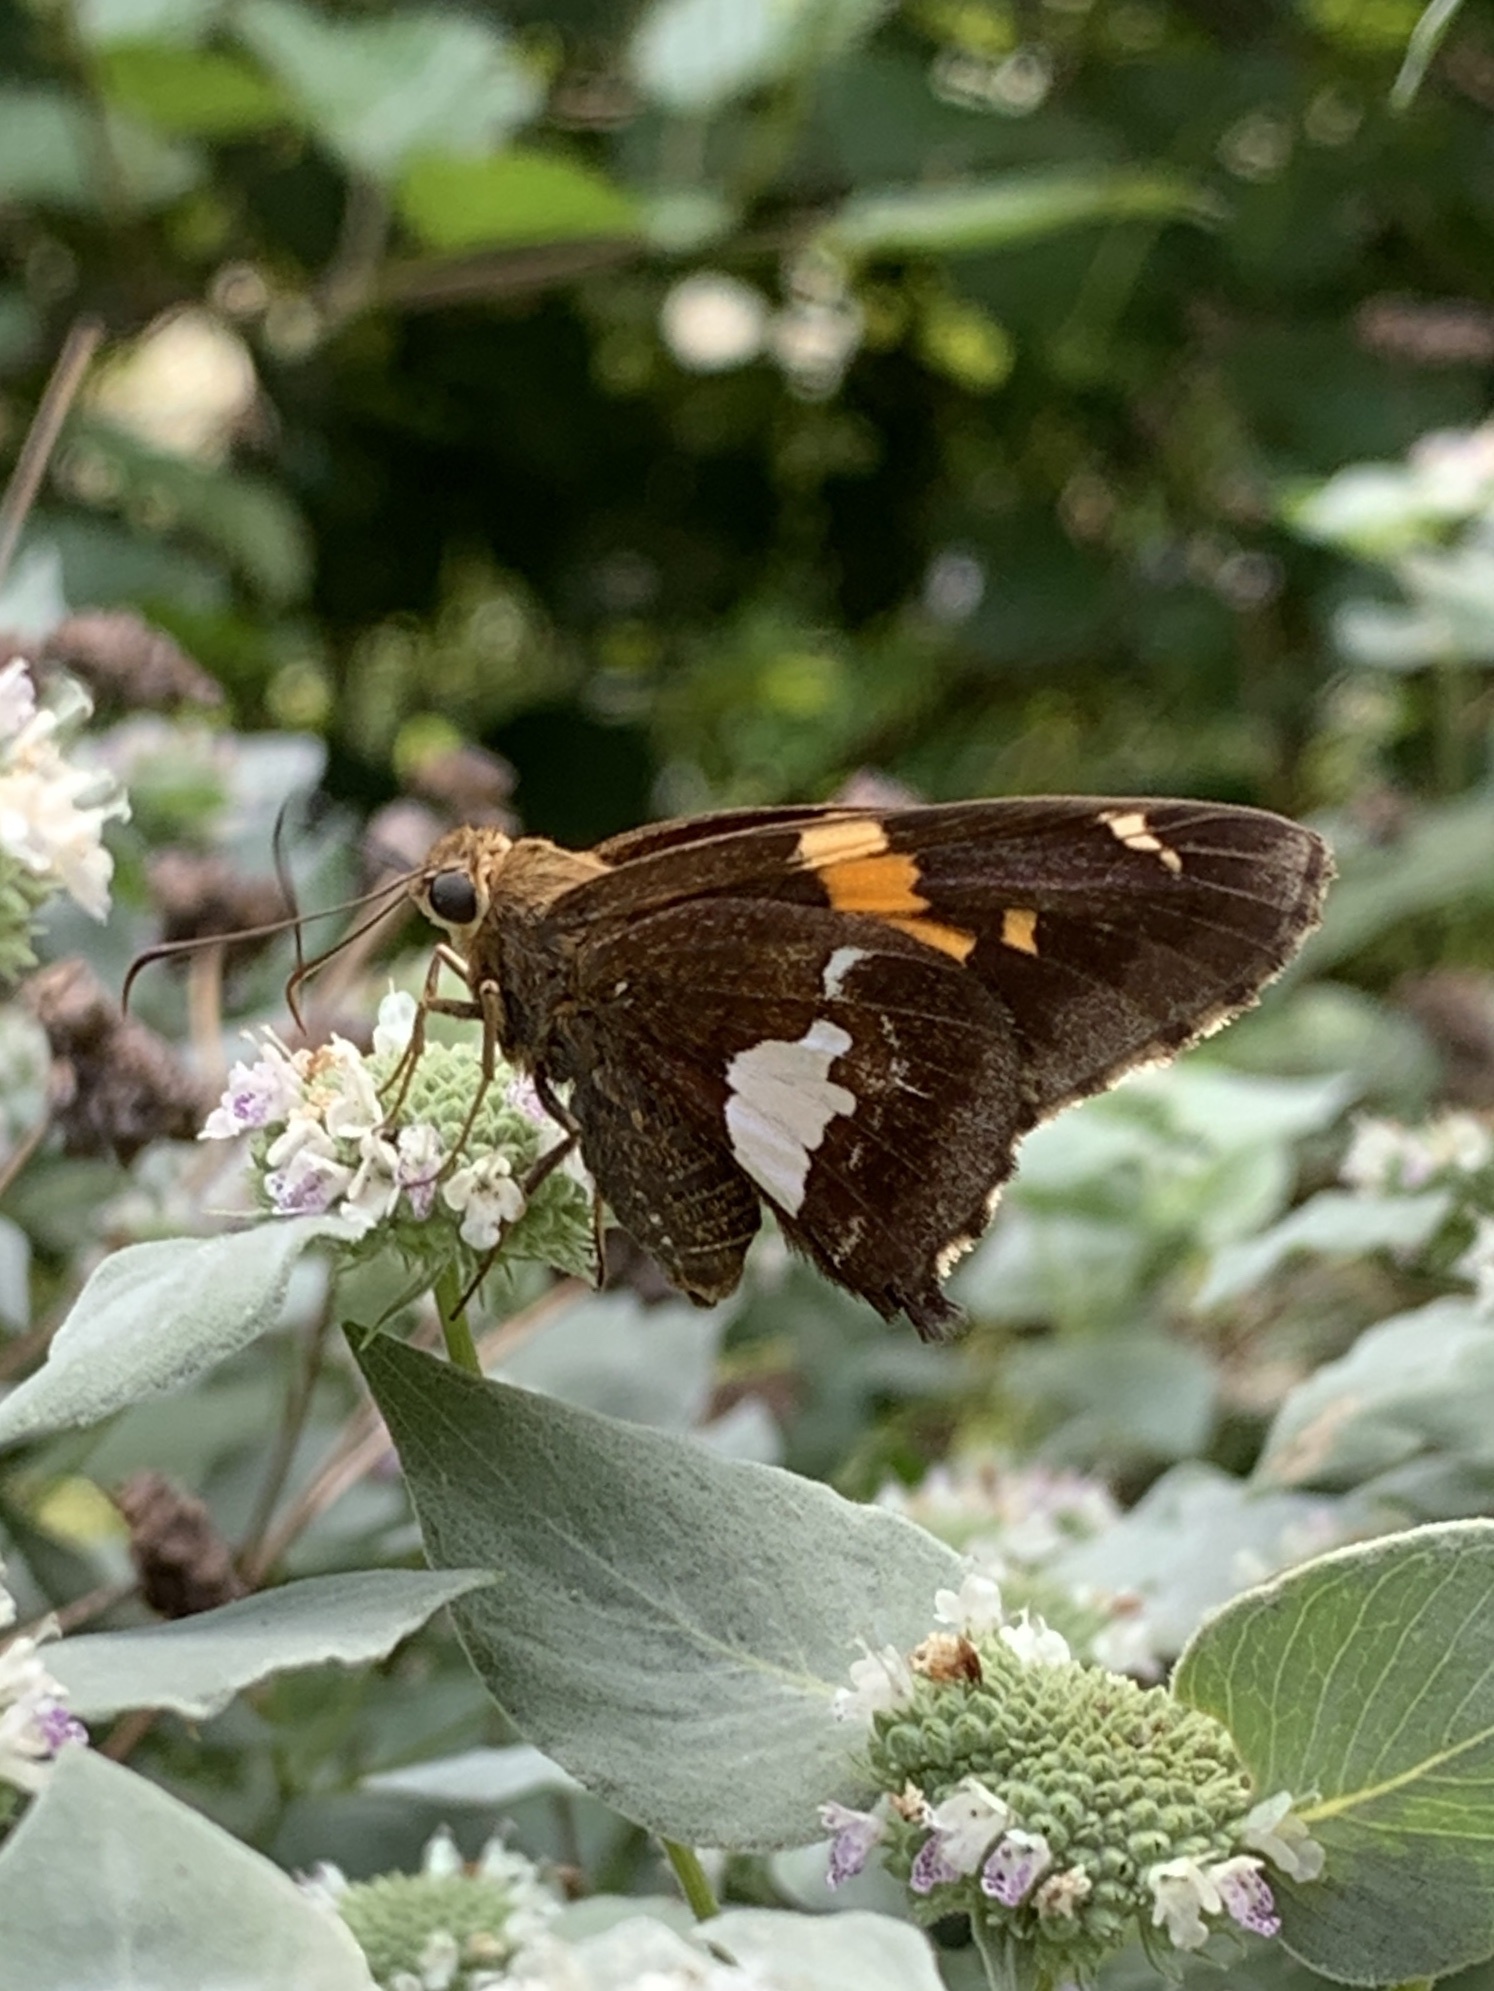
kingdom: Animalia
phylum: Arthropoda
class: Insecta
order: Lepidoptera
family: Hesperiidae
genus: Epargyreus
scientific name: Epargyreus clarus
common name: Silver-spotted skipper
